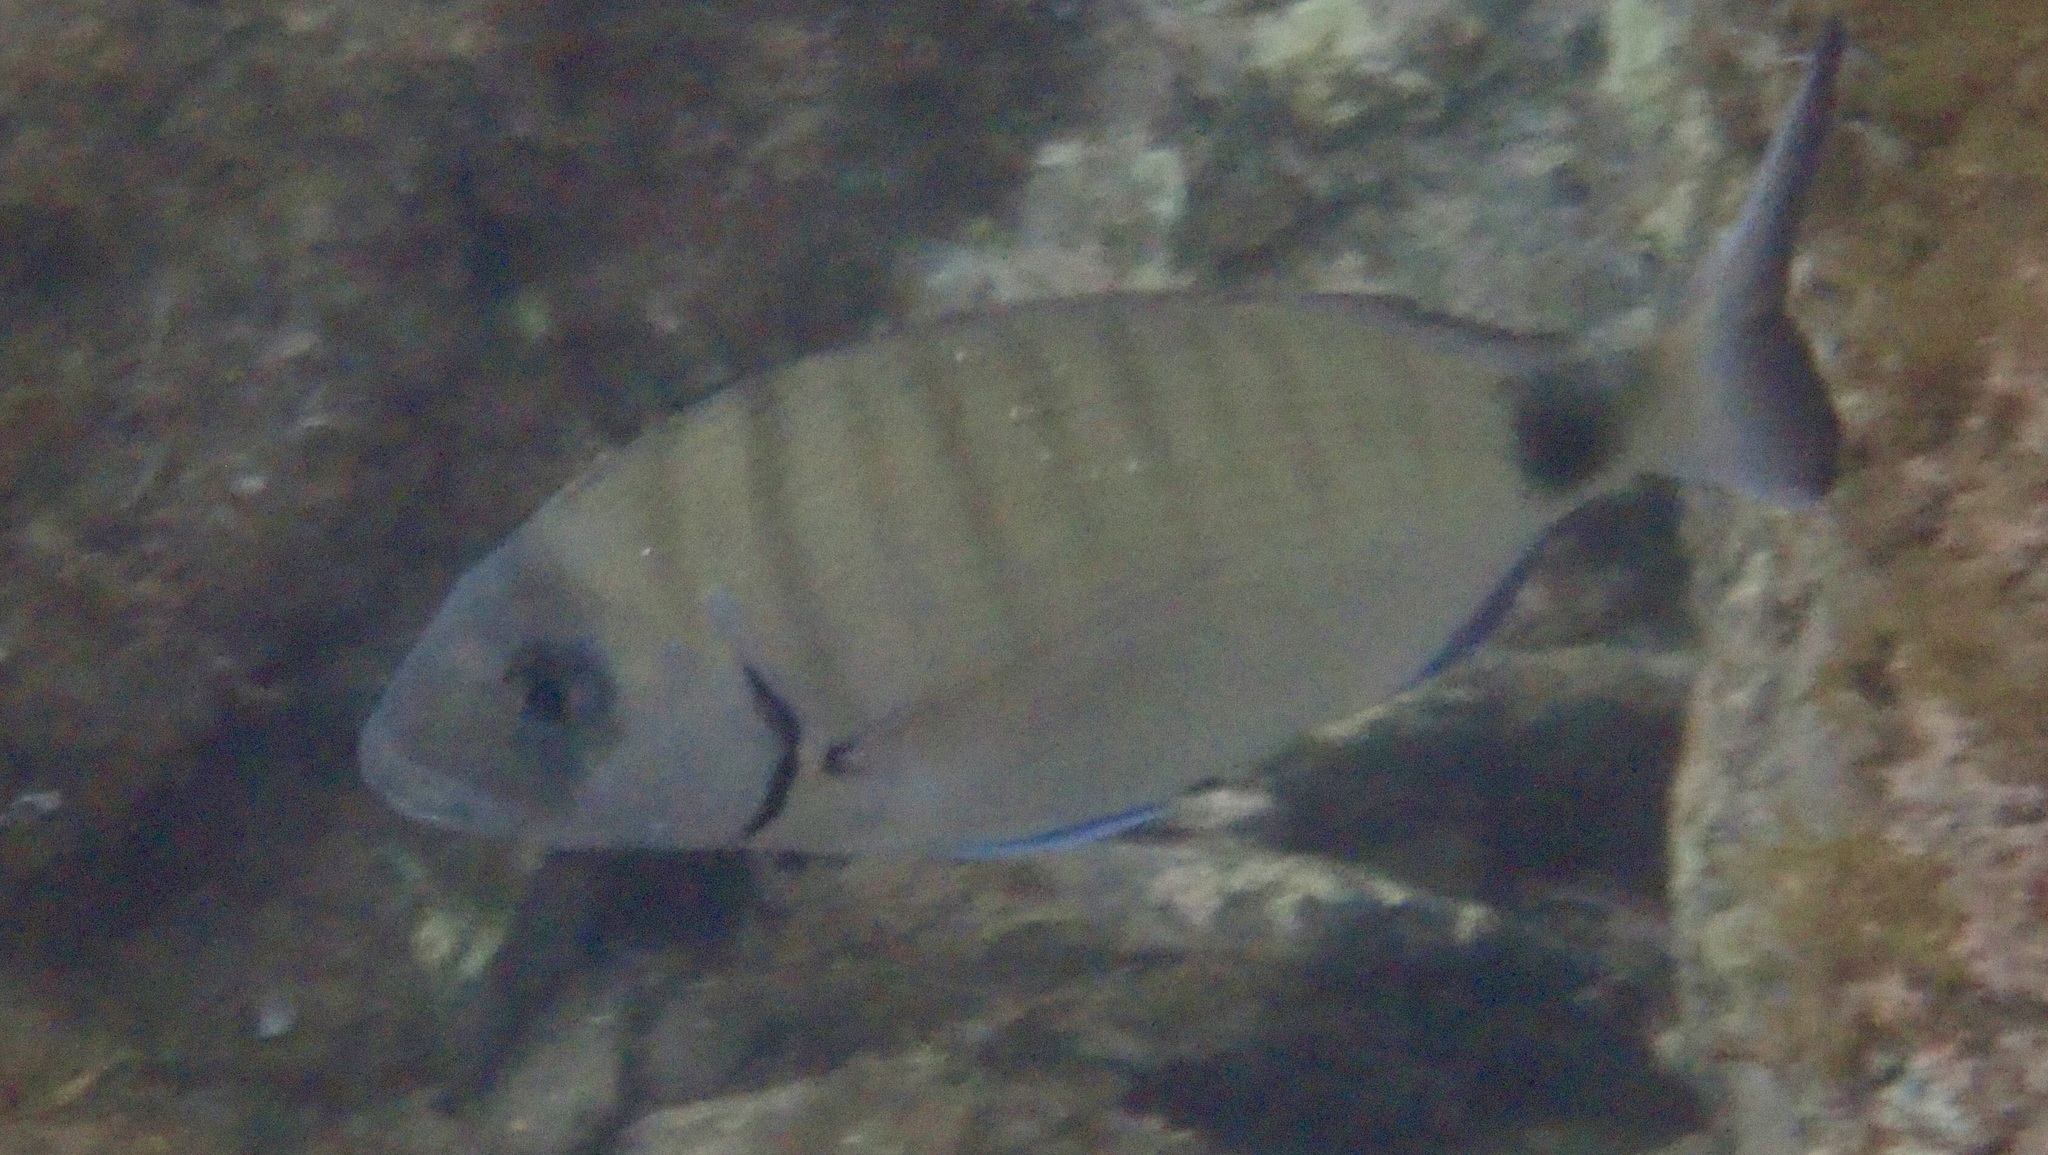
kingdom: Animalia
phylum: Chordata
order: Perciformes
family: Sparidae
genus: Diplodus
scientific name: Diplodus sargus
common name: White seabream
